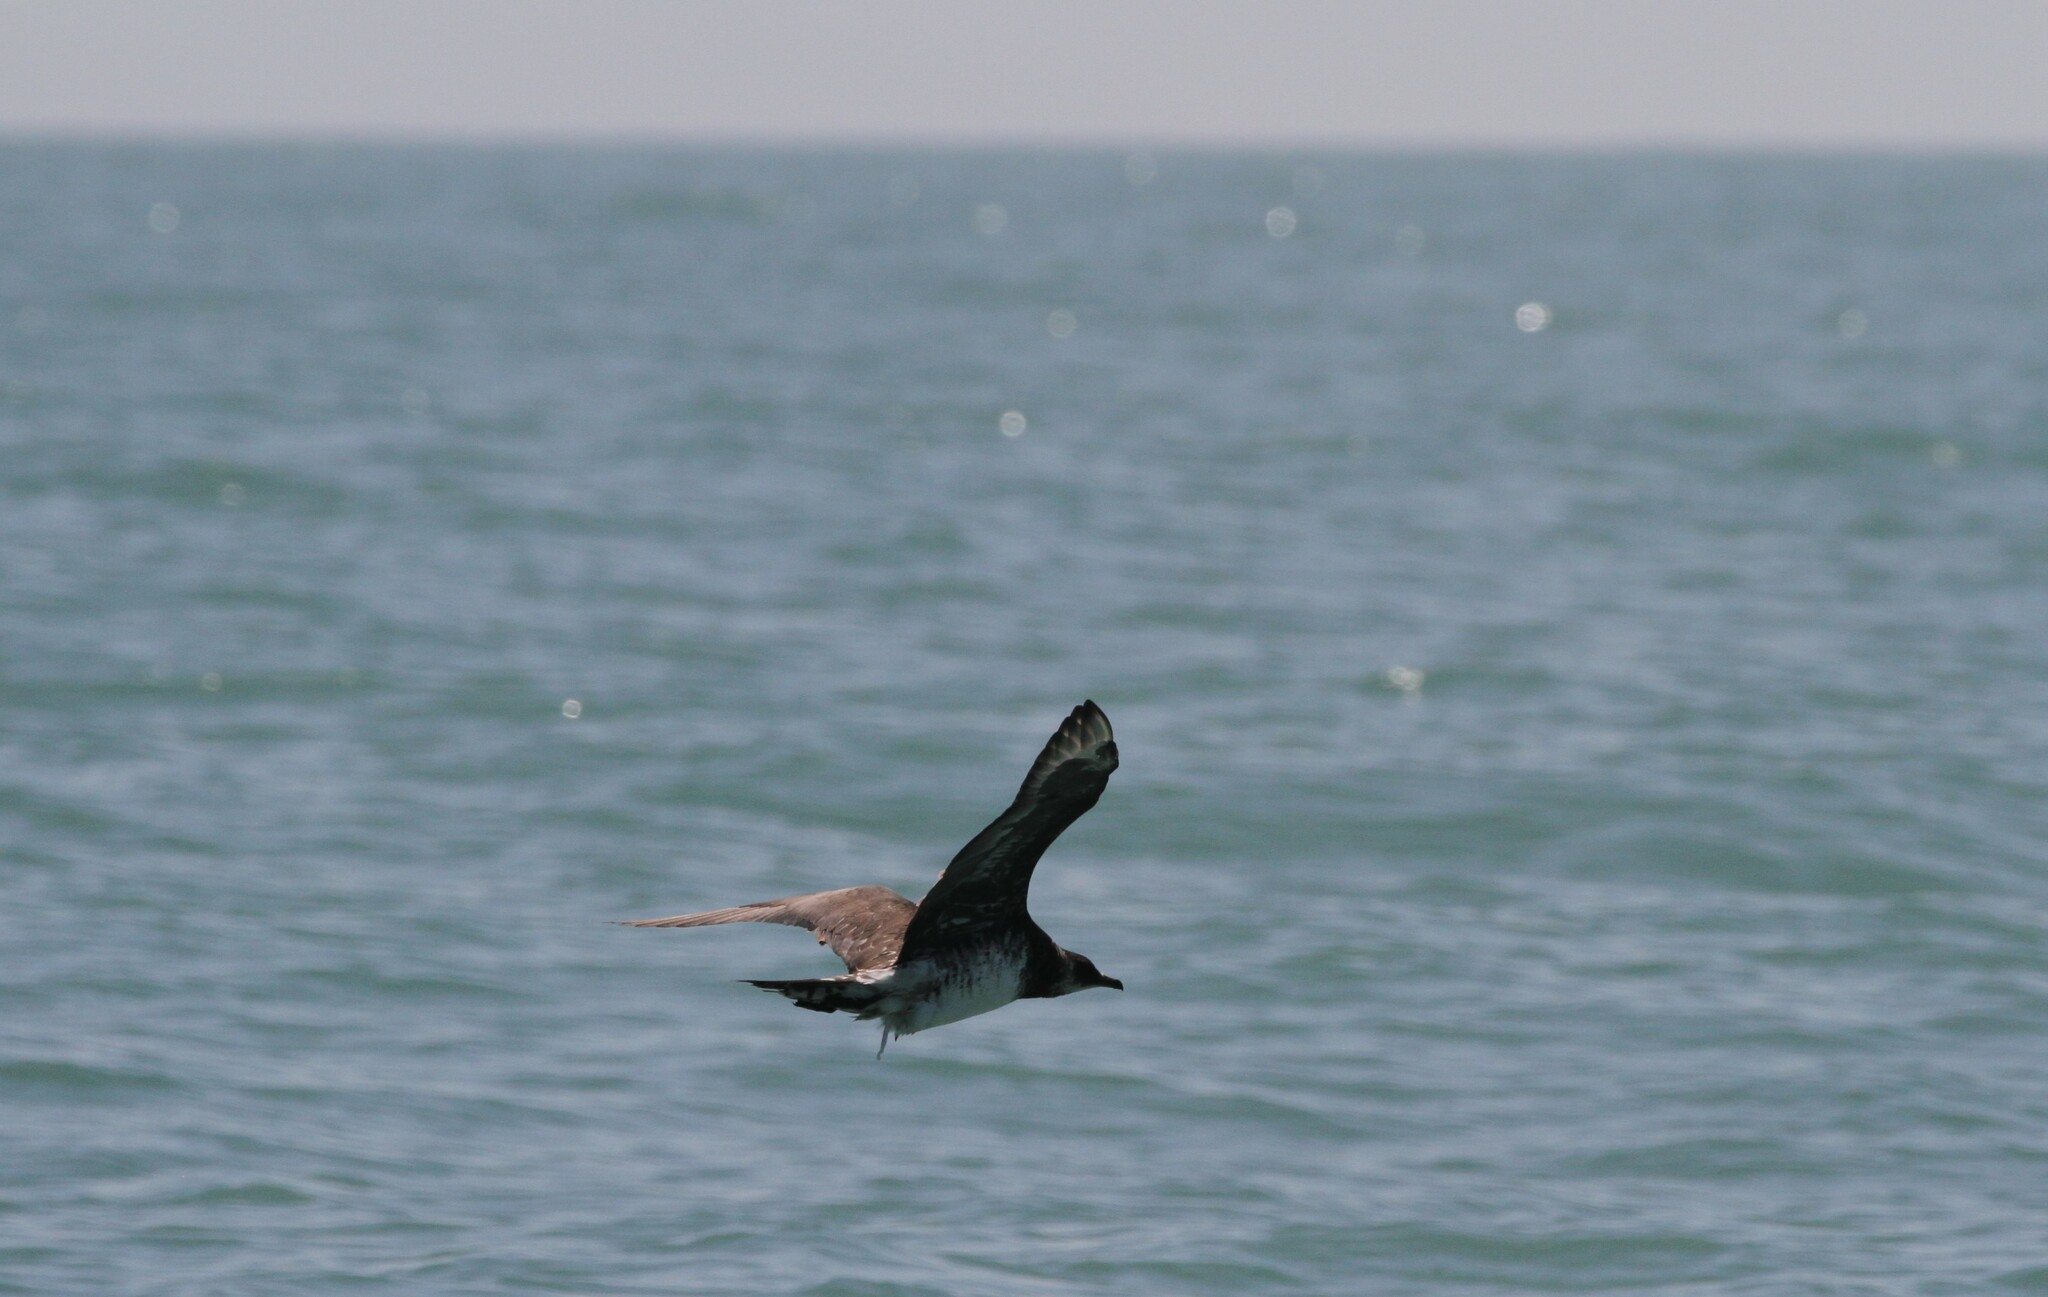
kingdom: Animalia
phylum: Chordata
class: Aves
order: Charadriiformes
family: Stercorariidae
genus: Stercorarius
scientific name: Stercorarius pomarinus
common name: Pomarine jaeger
